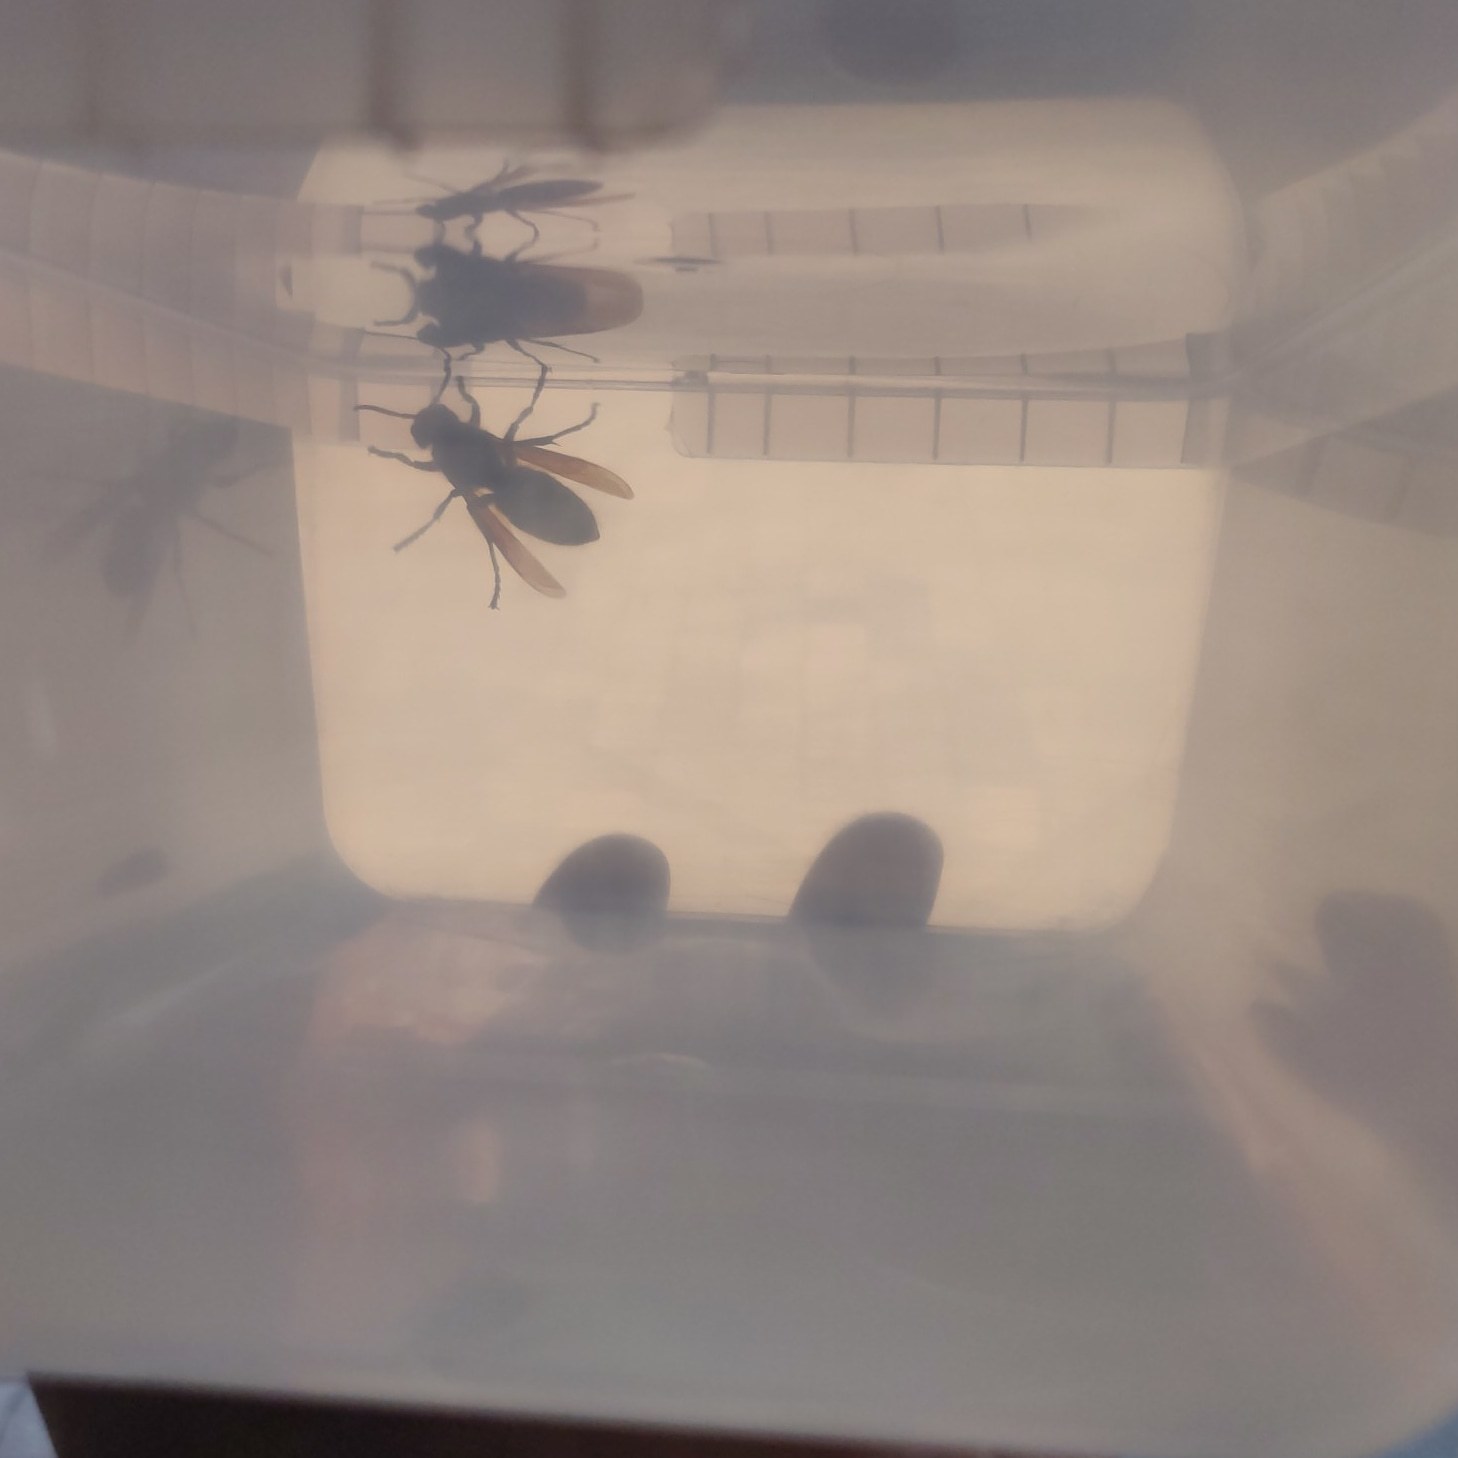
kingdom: Animalia
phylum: Arthropoda
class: Insecta
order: Hymenoptera
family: Vespidae
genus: Vespa
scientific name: Vespa crabro
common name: Hornet
